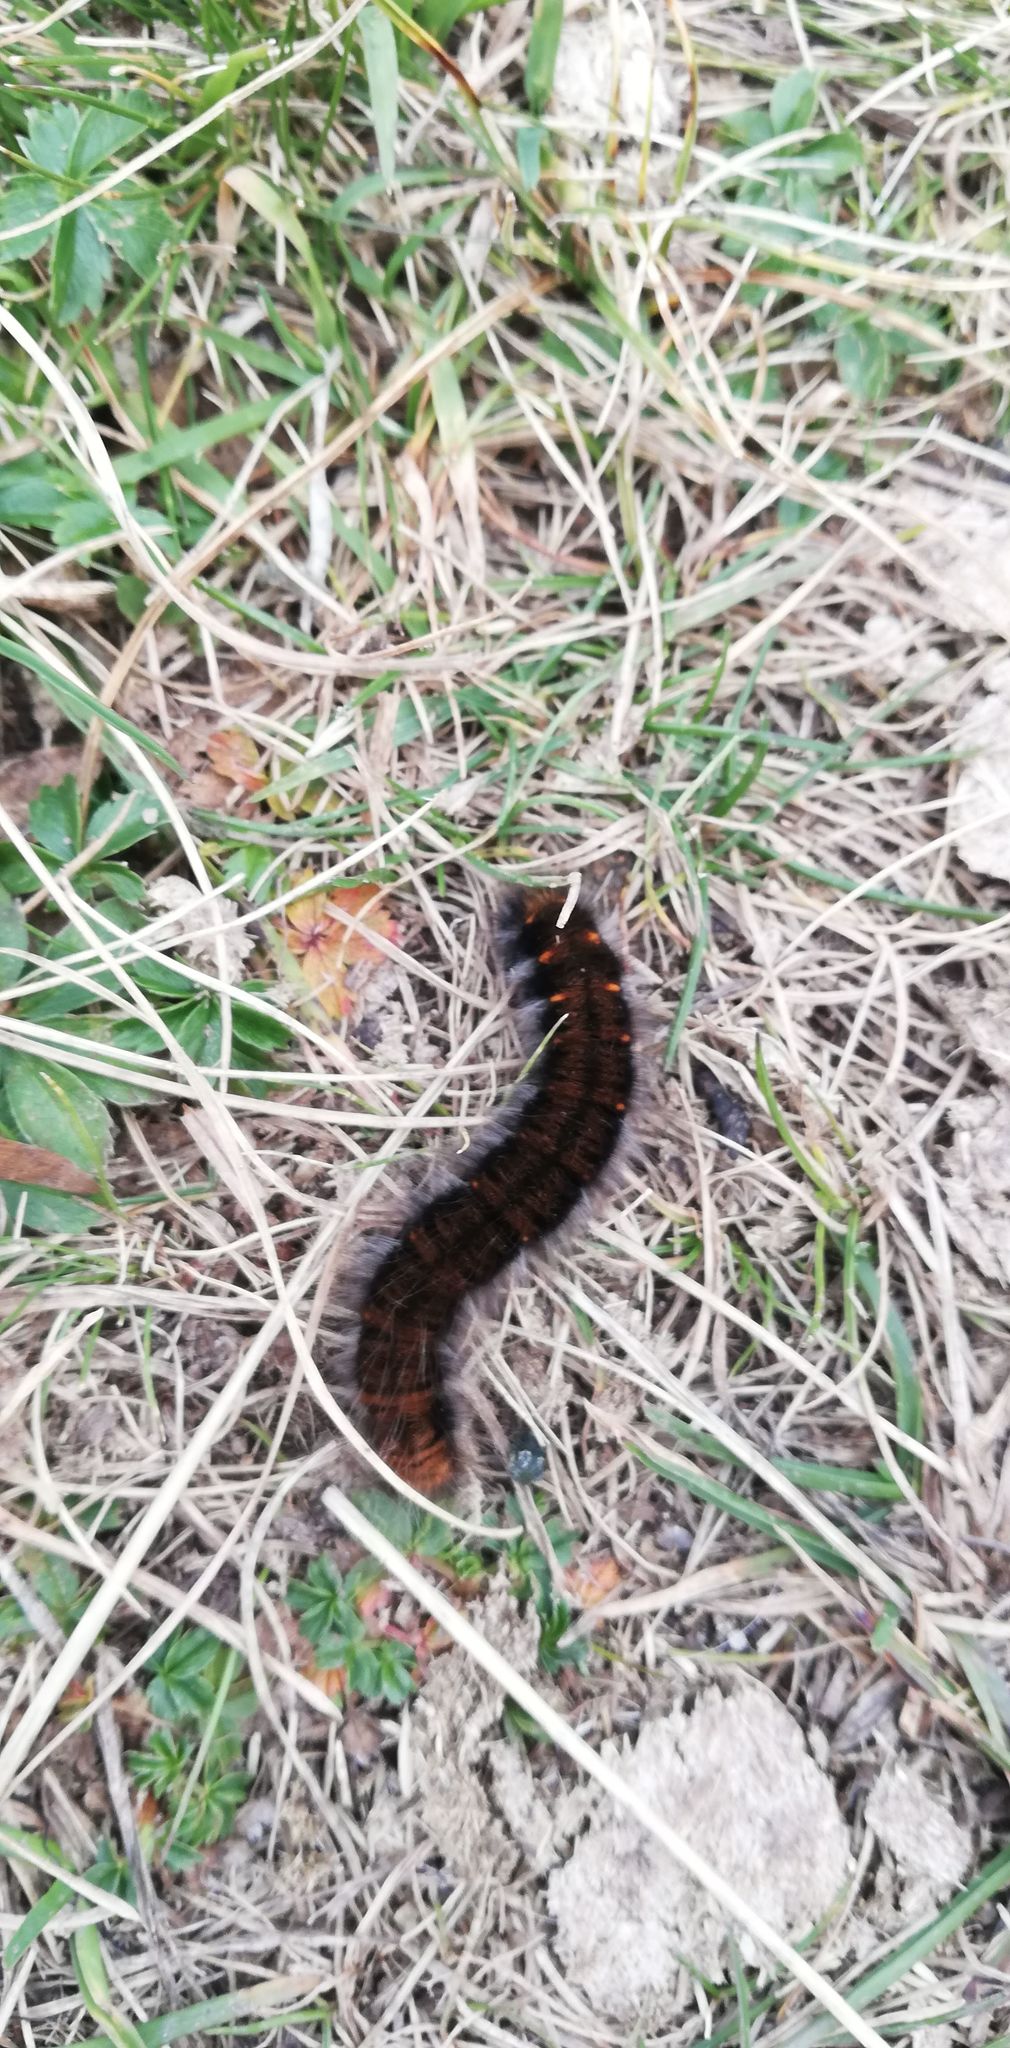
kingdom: Animalia
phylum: Arthropoda
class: Insecta
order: Lepidoptera
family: Lasiocampidae
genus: Macrothylacia
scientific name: Macrothylacia rubi
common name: Fox moth
